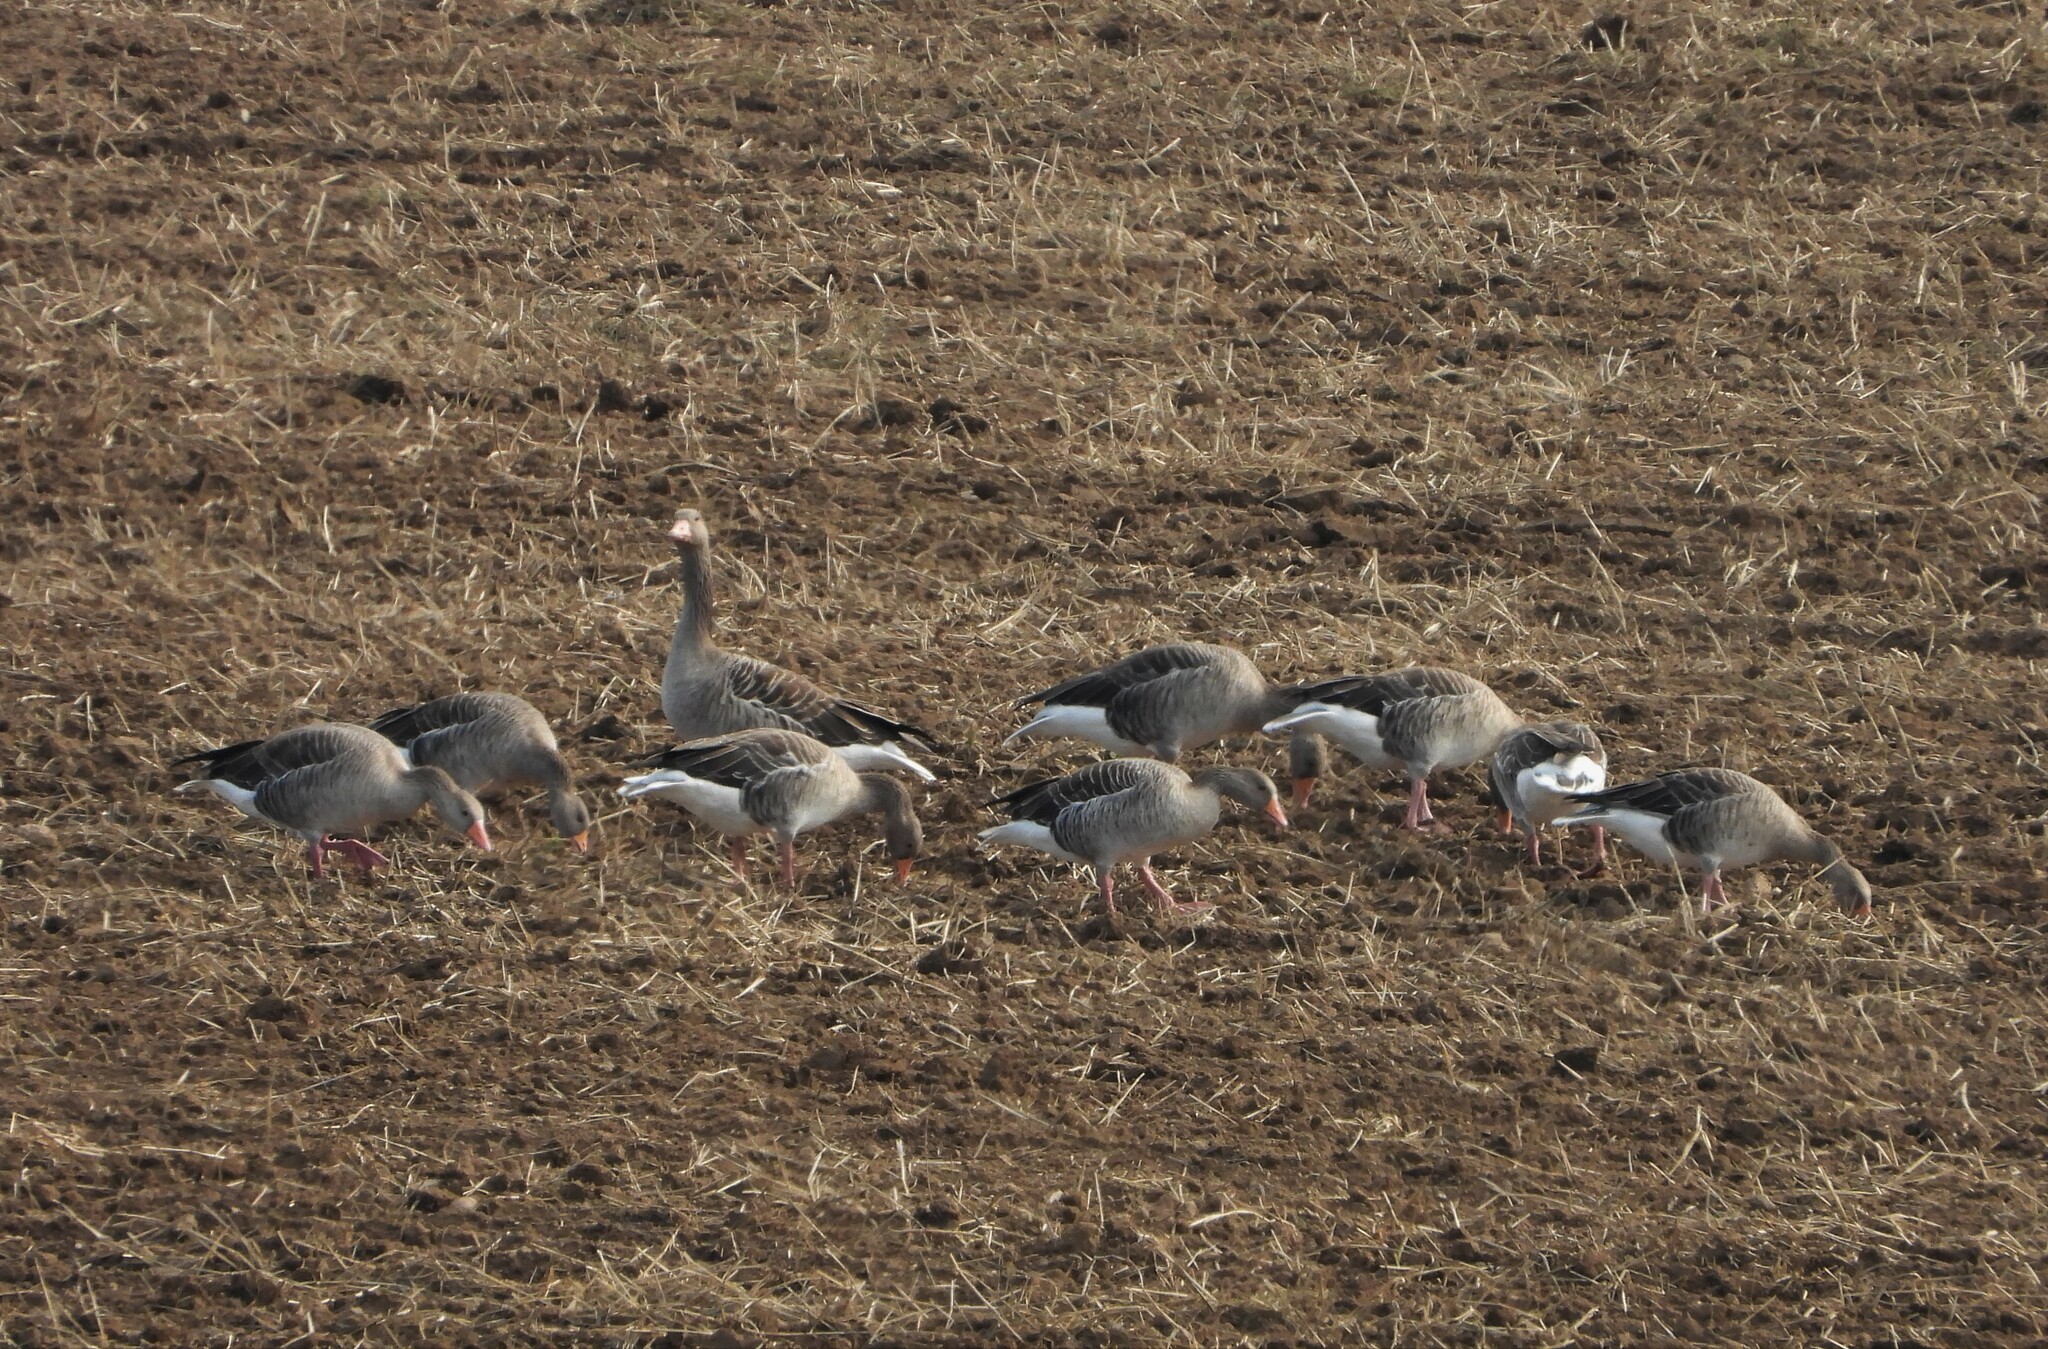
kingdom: Animalia
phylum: Chordata
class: Aves
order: Anseriformes
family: Anatidae
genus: Anser
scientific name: Anser anser
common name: Greylag goose
